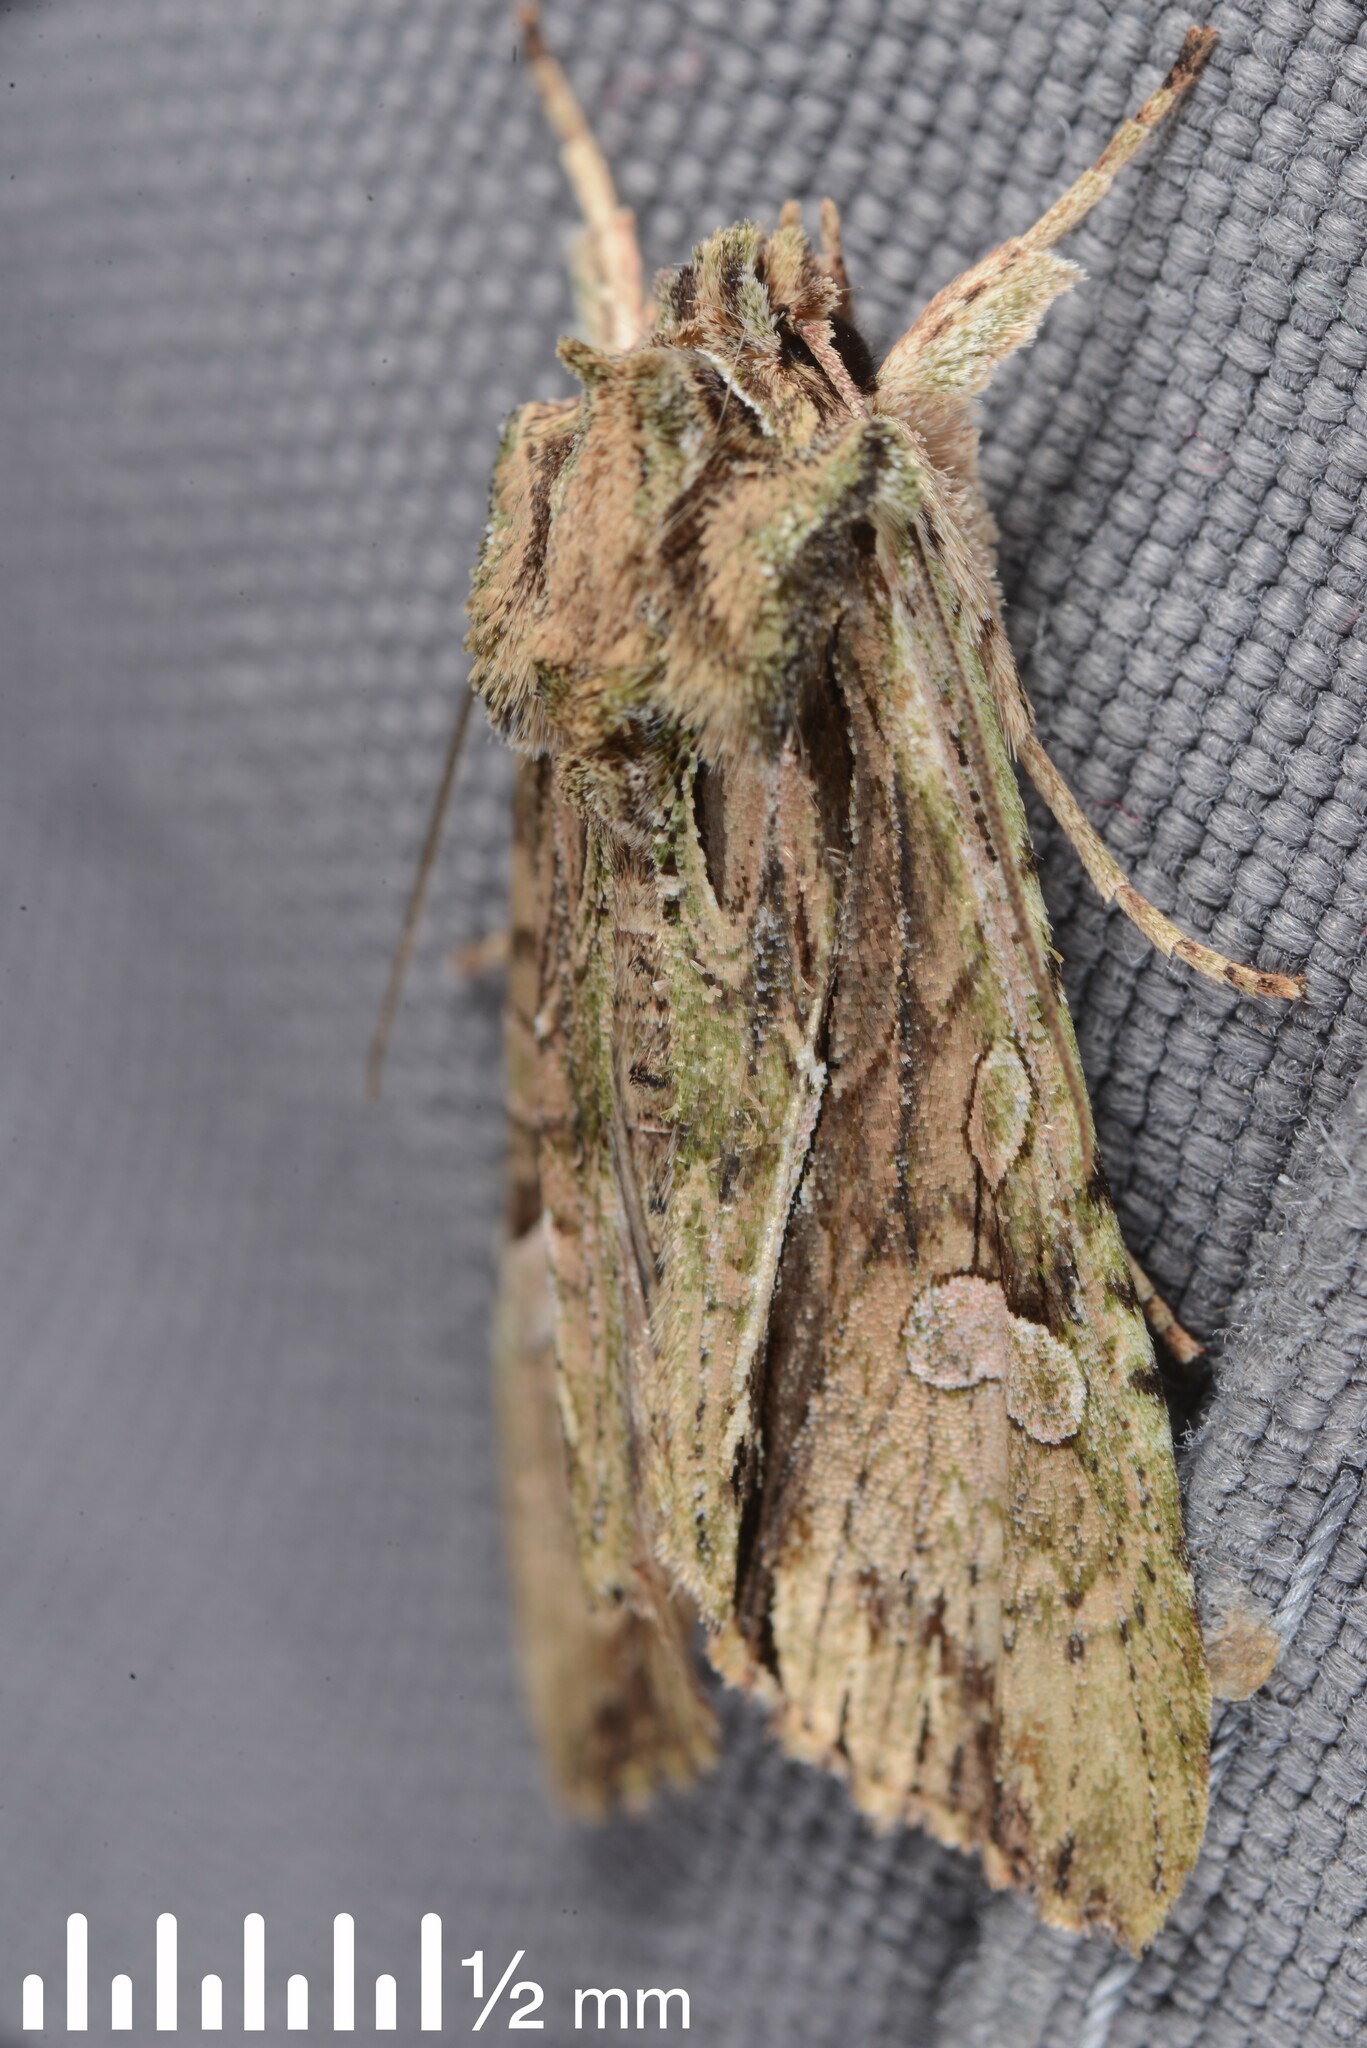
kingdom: Animalia
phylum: Arthropoda
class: Insecta
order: Lepidoptera
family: Noctuidae
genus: Meterana
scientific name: Meterana decorata
